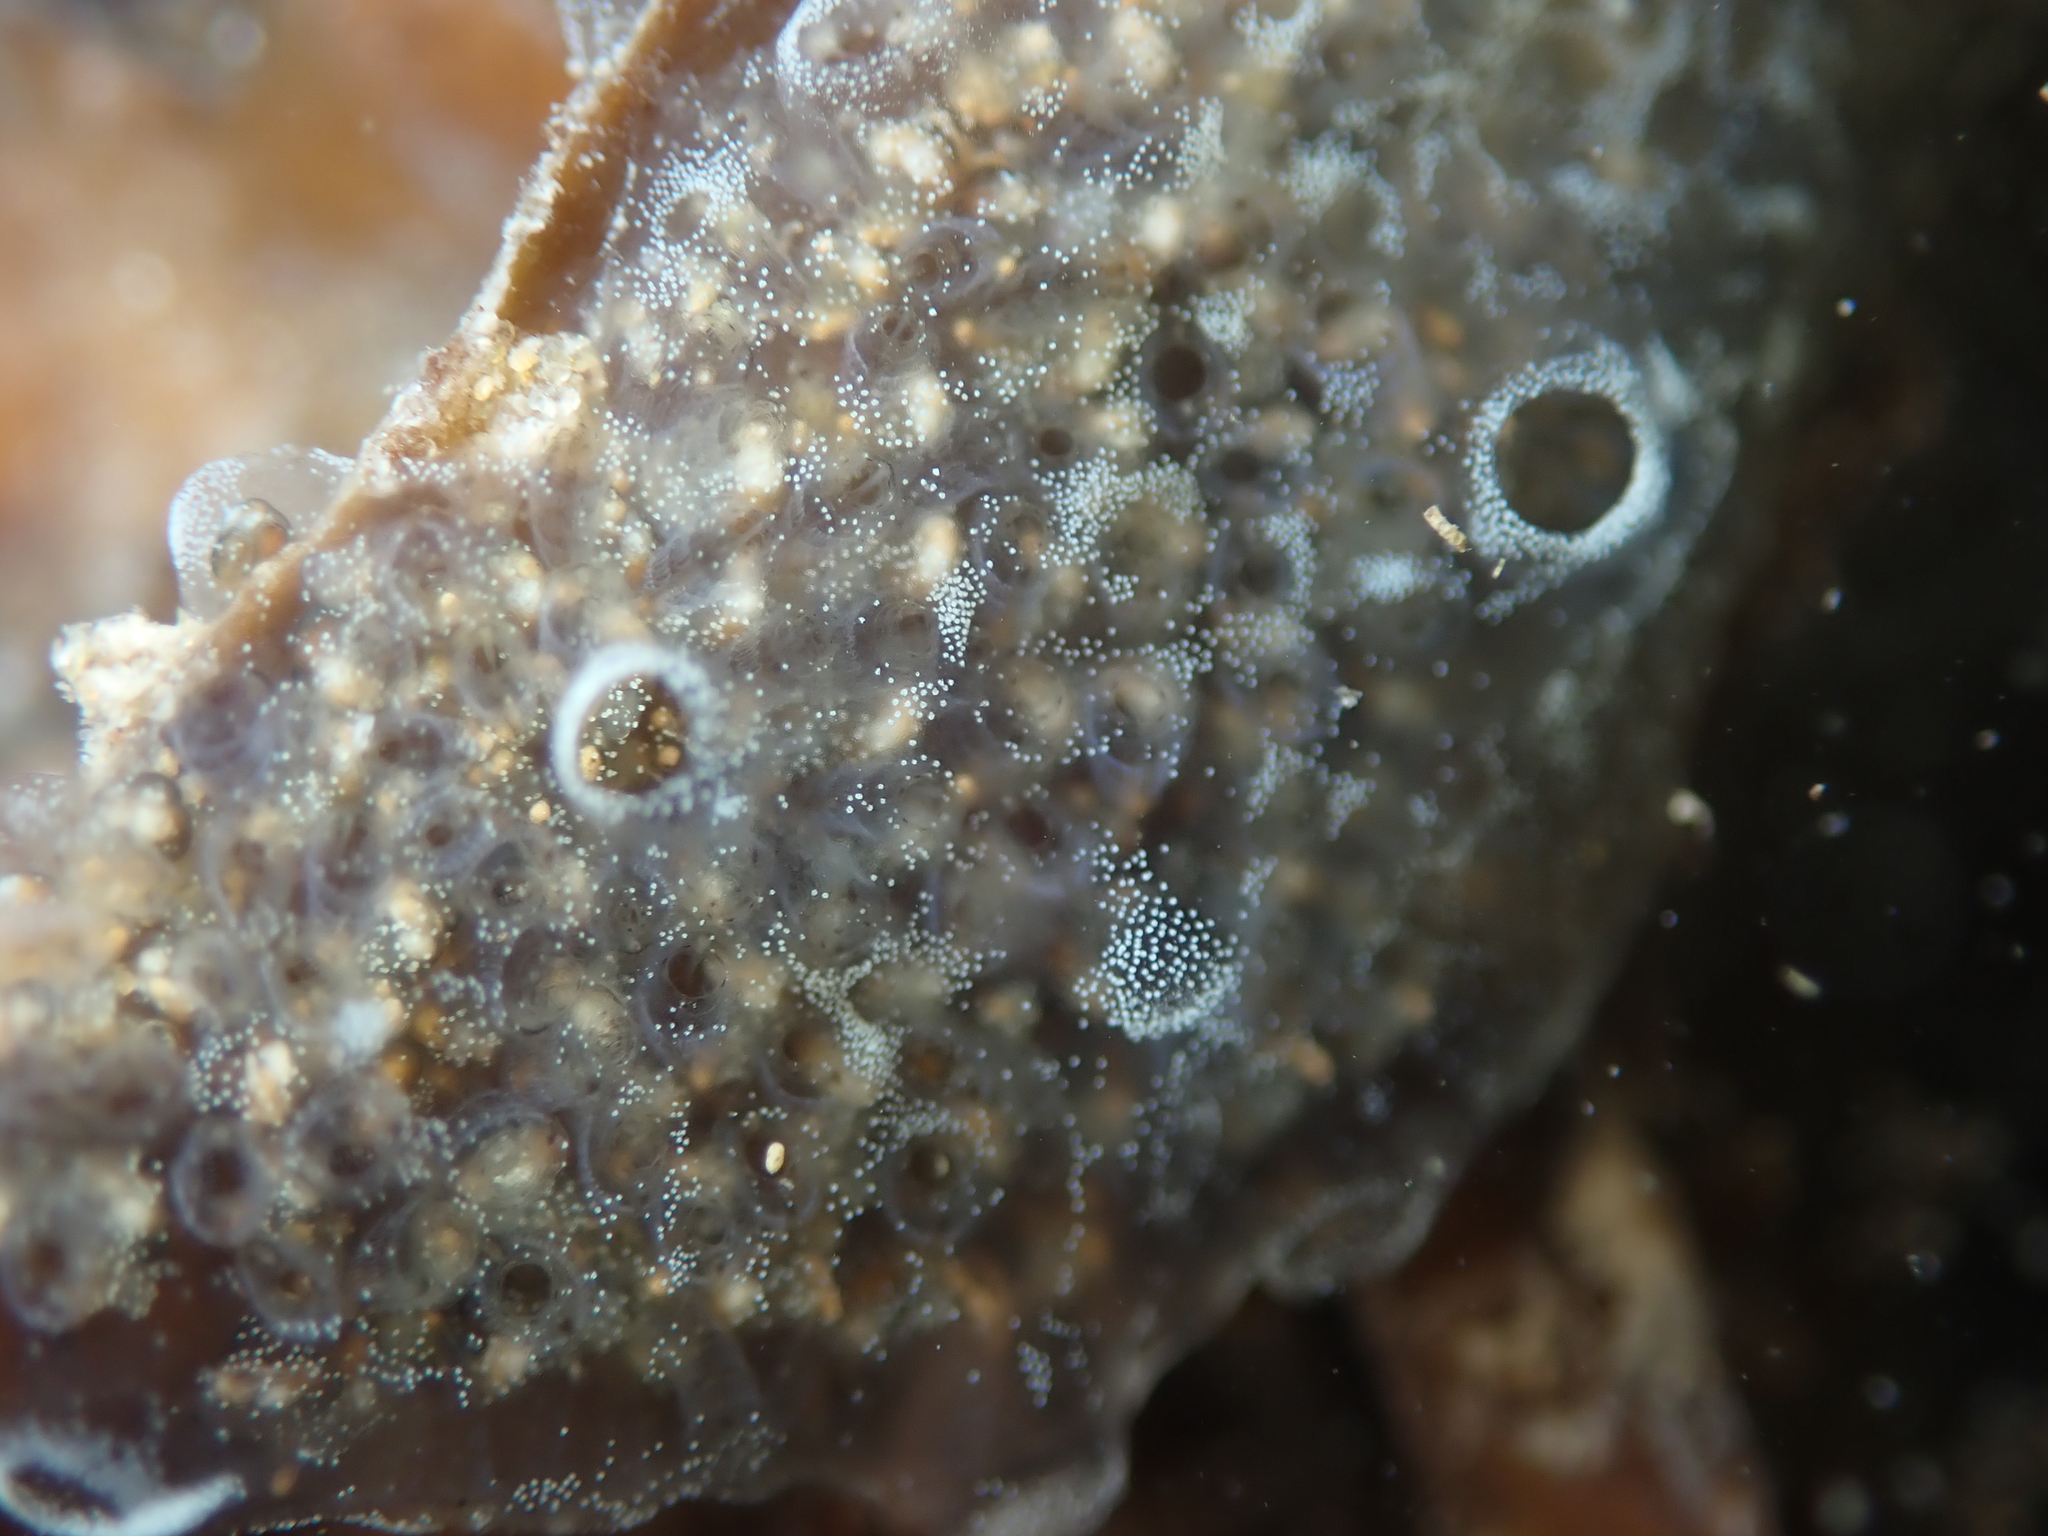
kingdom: Animalia
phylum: Chordata
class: Ascidiacea
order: Aplousobranchia
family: Didemnidae
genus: Diplosoma
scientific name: Diplosoma listerianum
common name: Compound sea squirt
